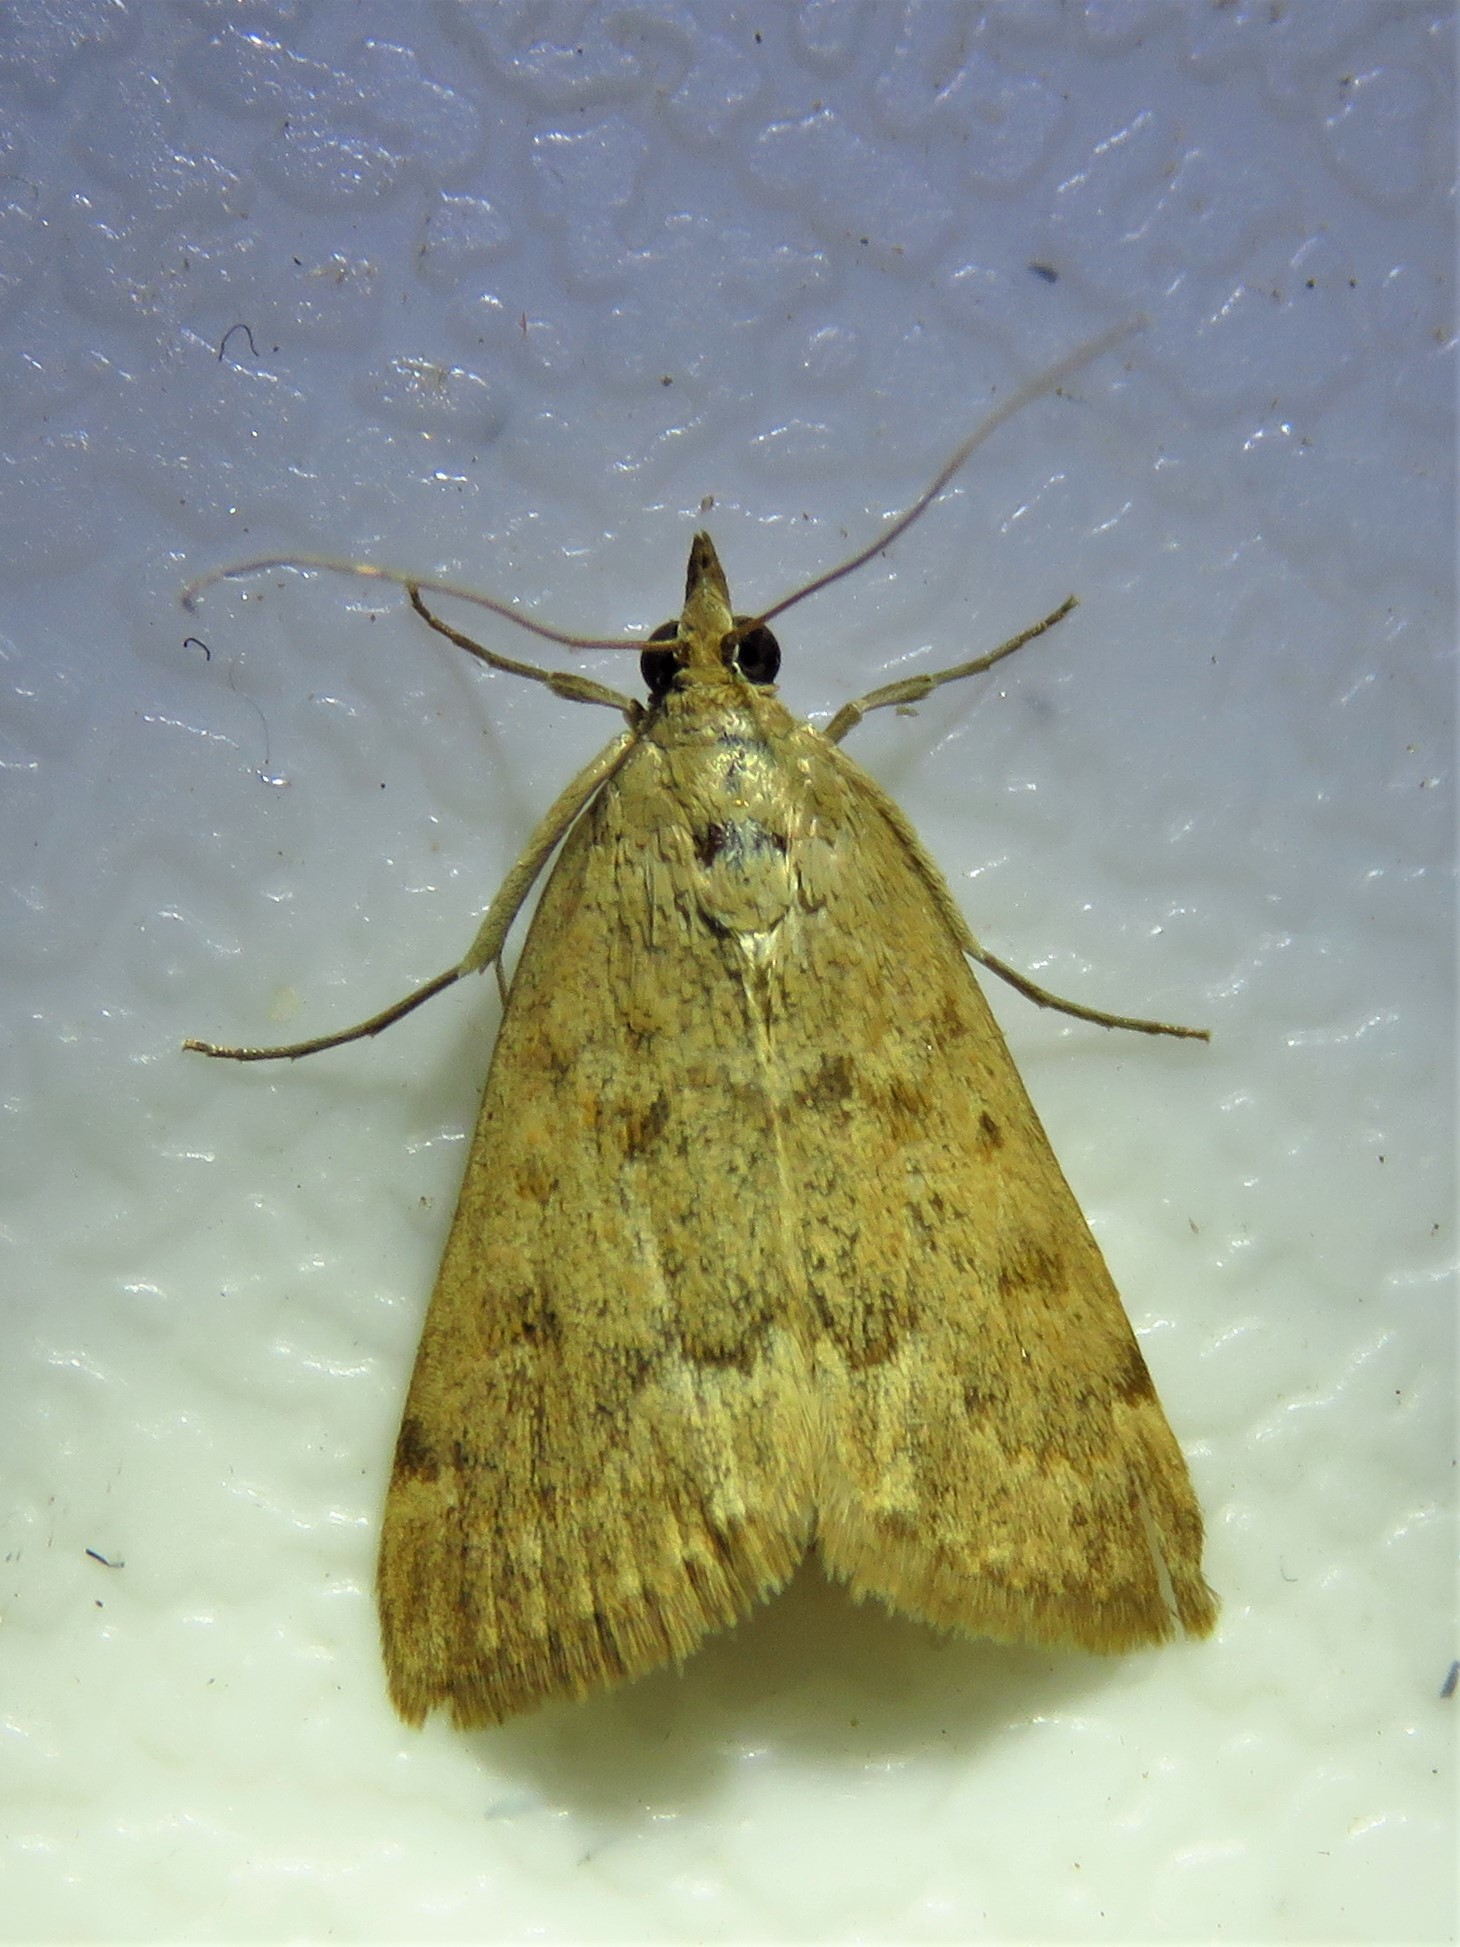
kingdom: Animalia
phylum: Arthropoda
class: Insecta
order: Lepidoptera
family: Crambidae
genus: Achyra
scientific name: Achyra rantalis
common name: Garden webworm
